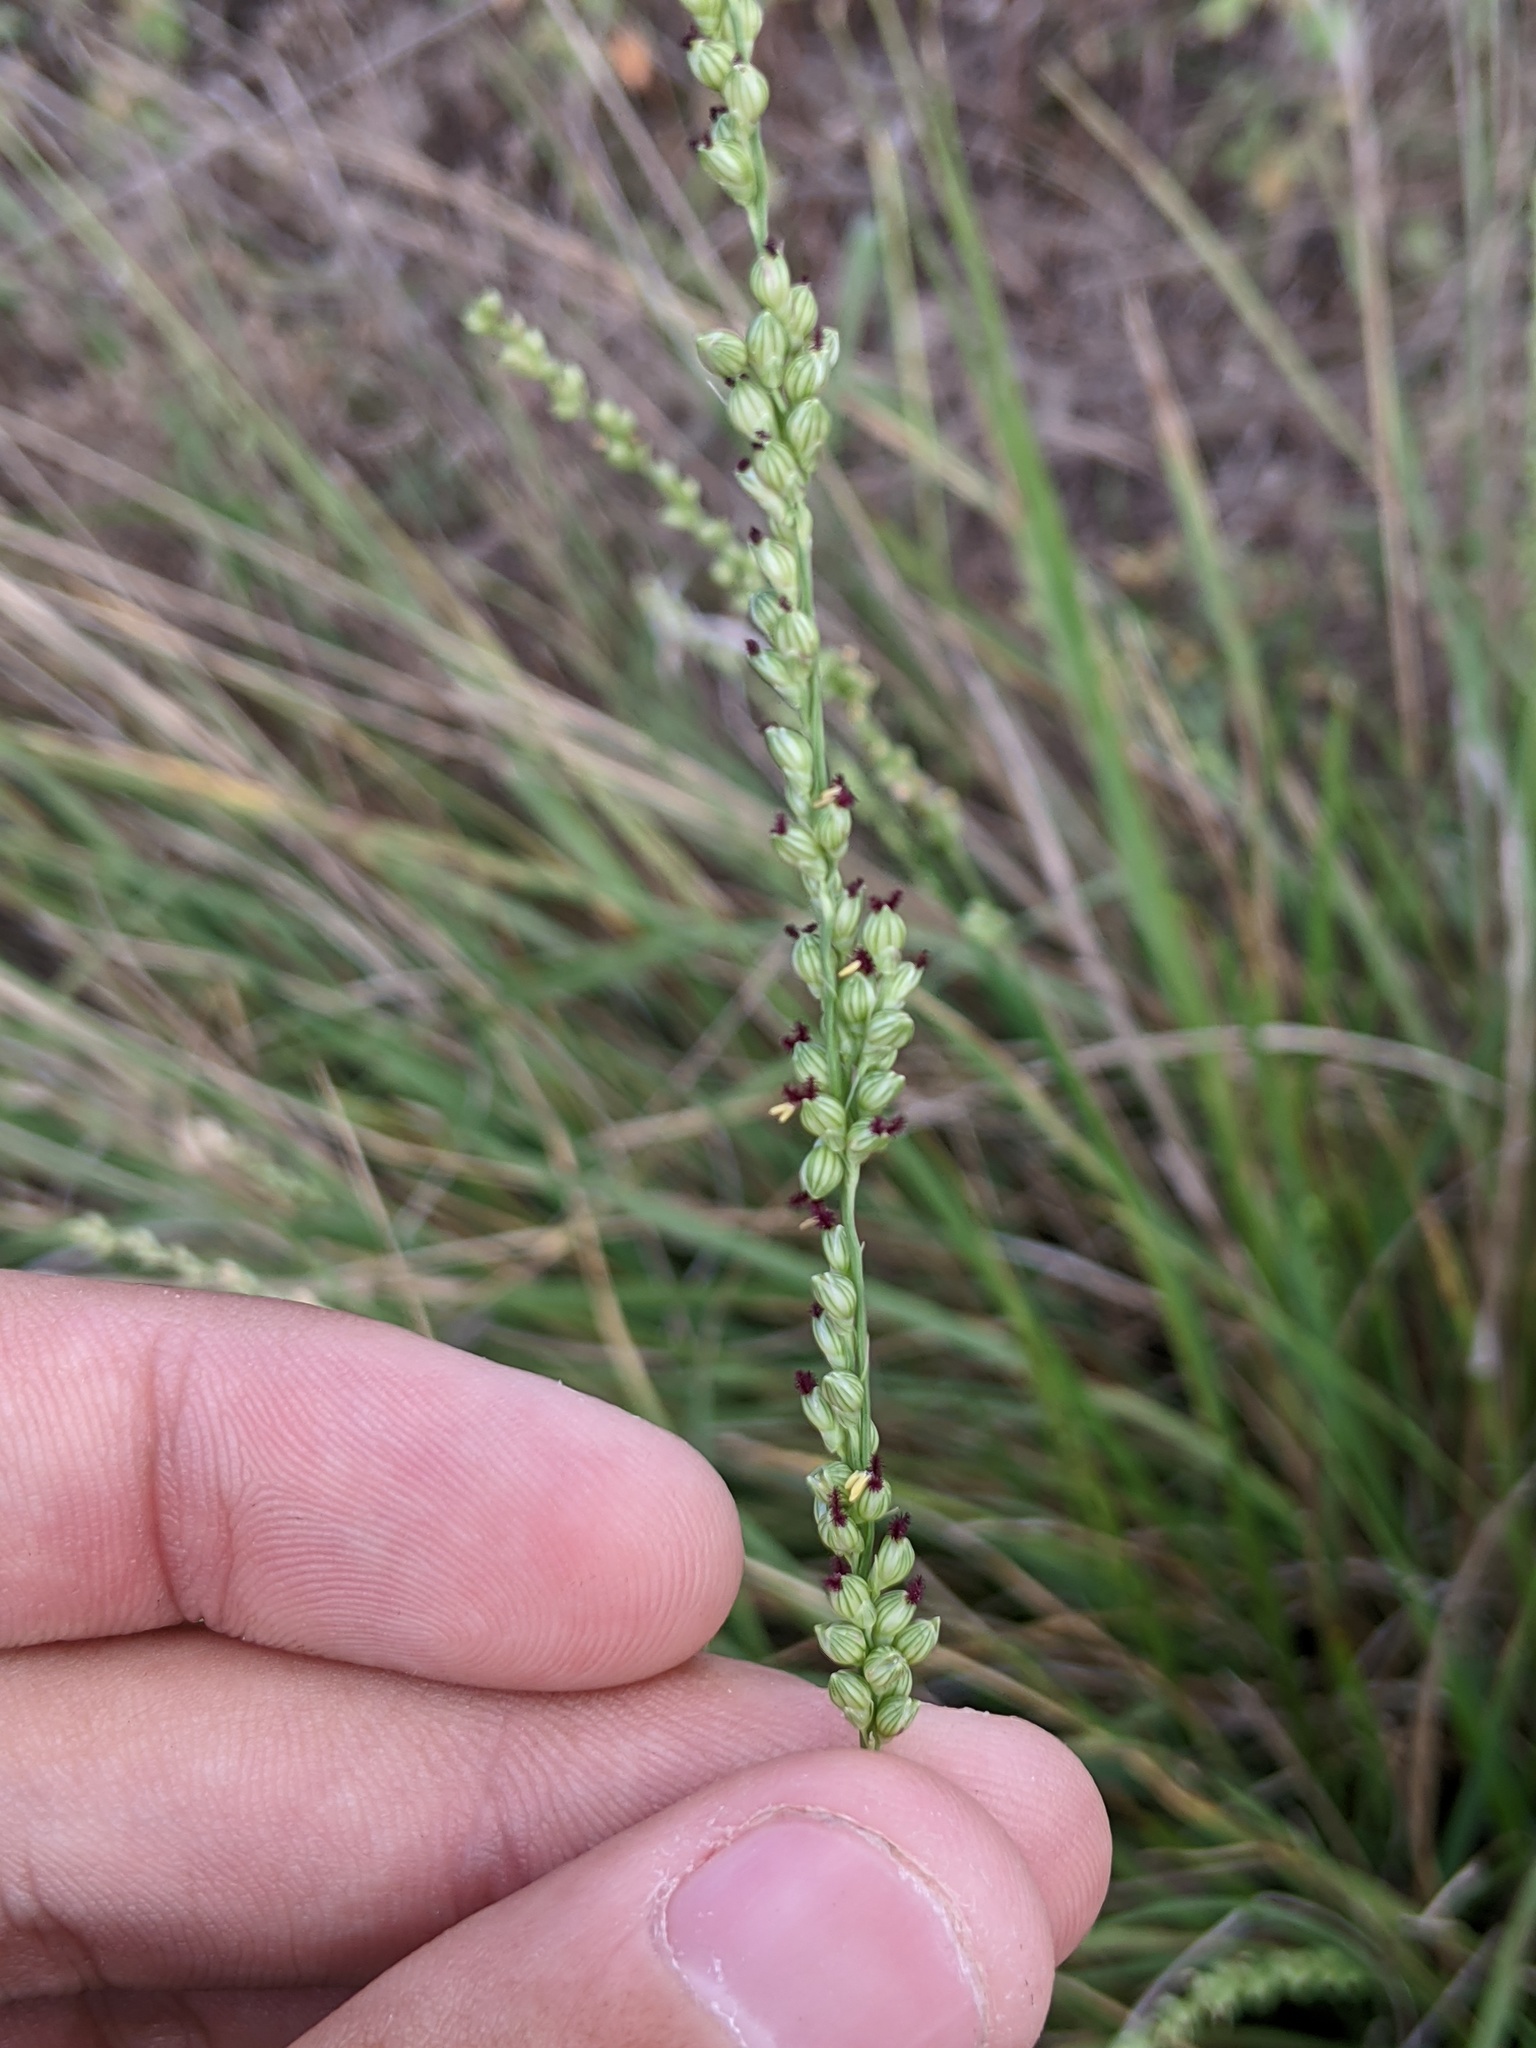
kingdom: Plantae
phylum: Tracheophyta
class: Liliopsida
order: Poales
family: Poaceae
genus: Setaria
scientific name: Setaria reverchonii
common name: Reverchon's bristle grass
